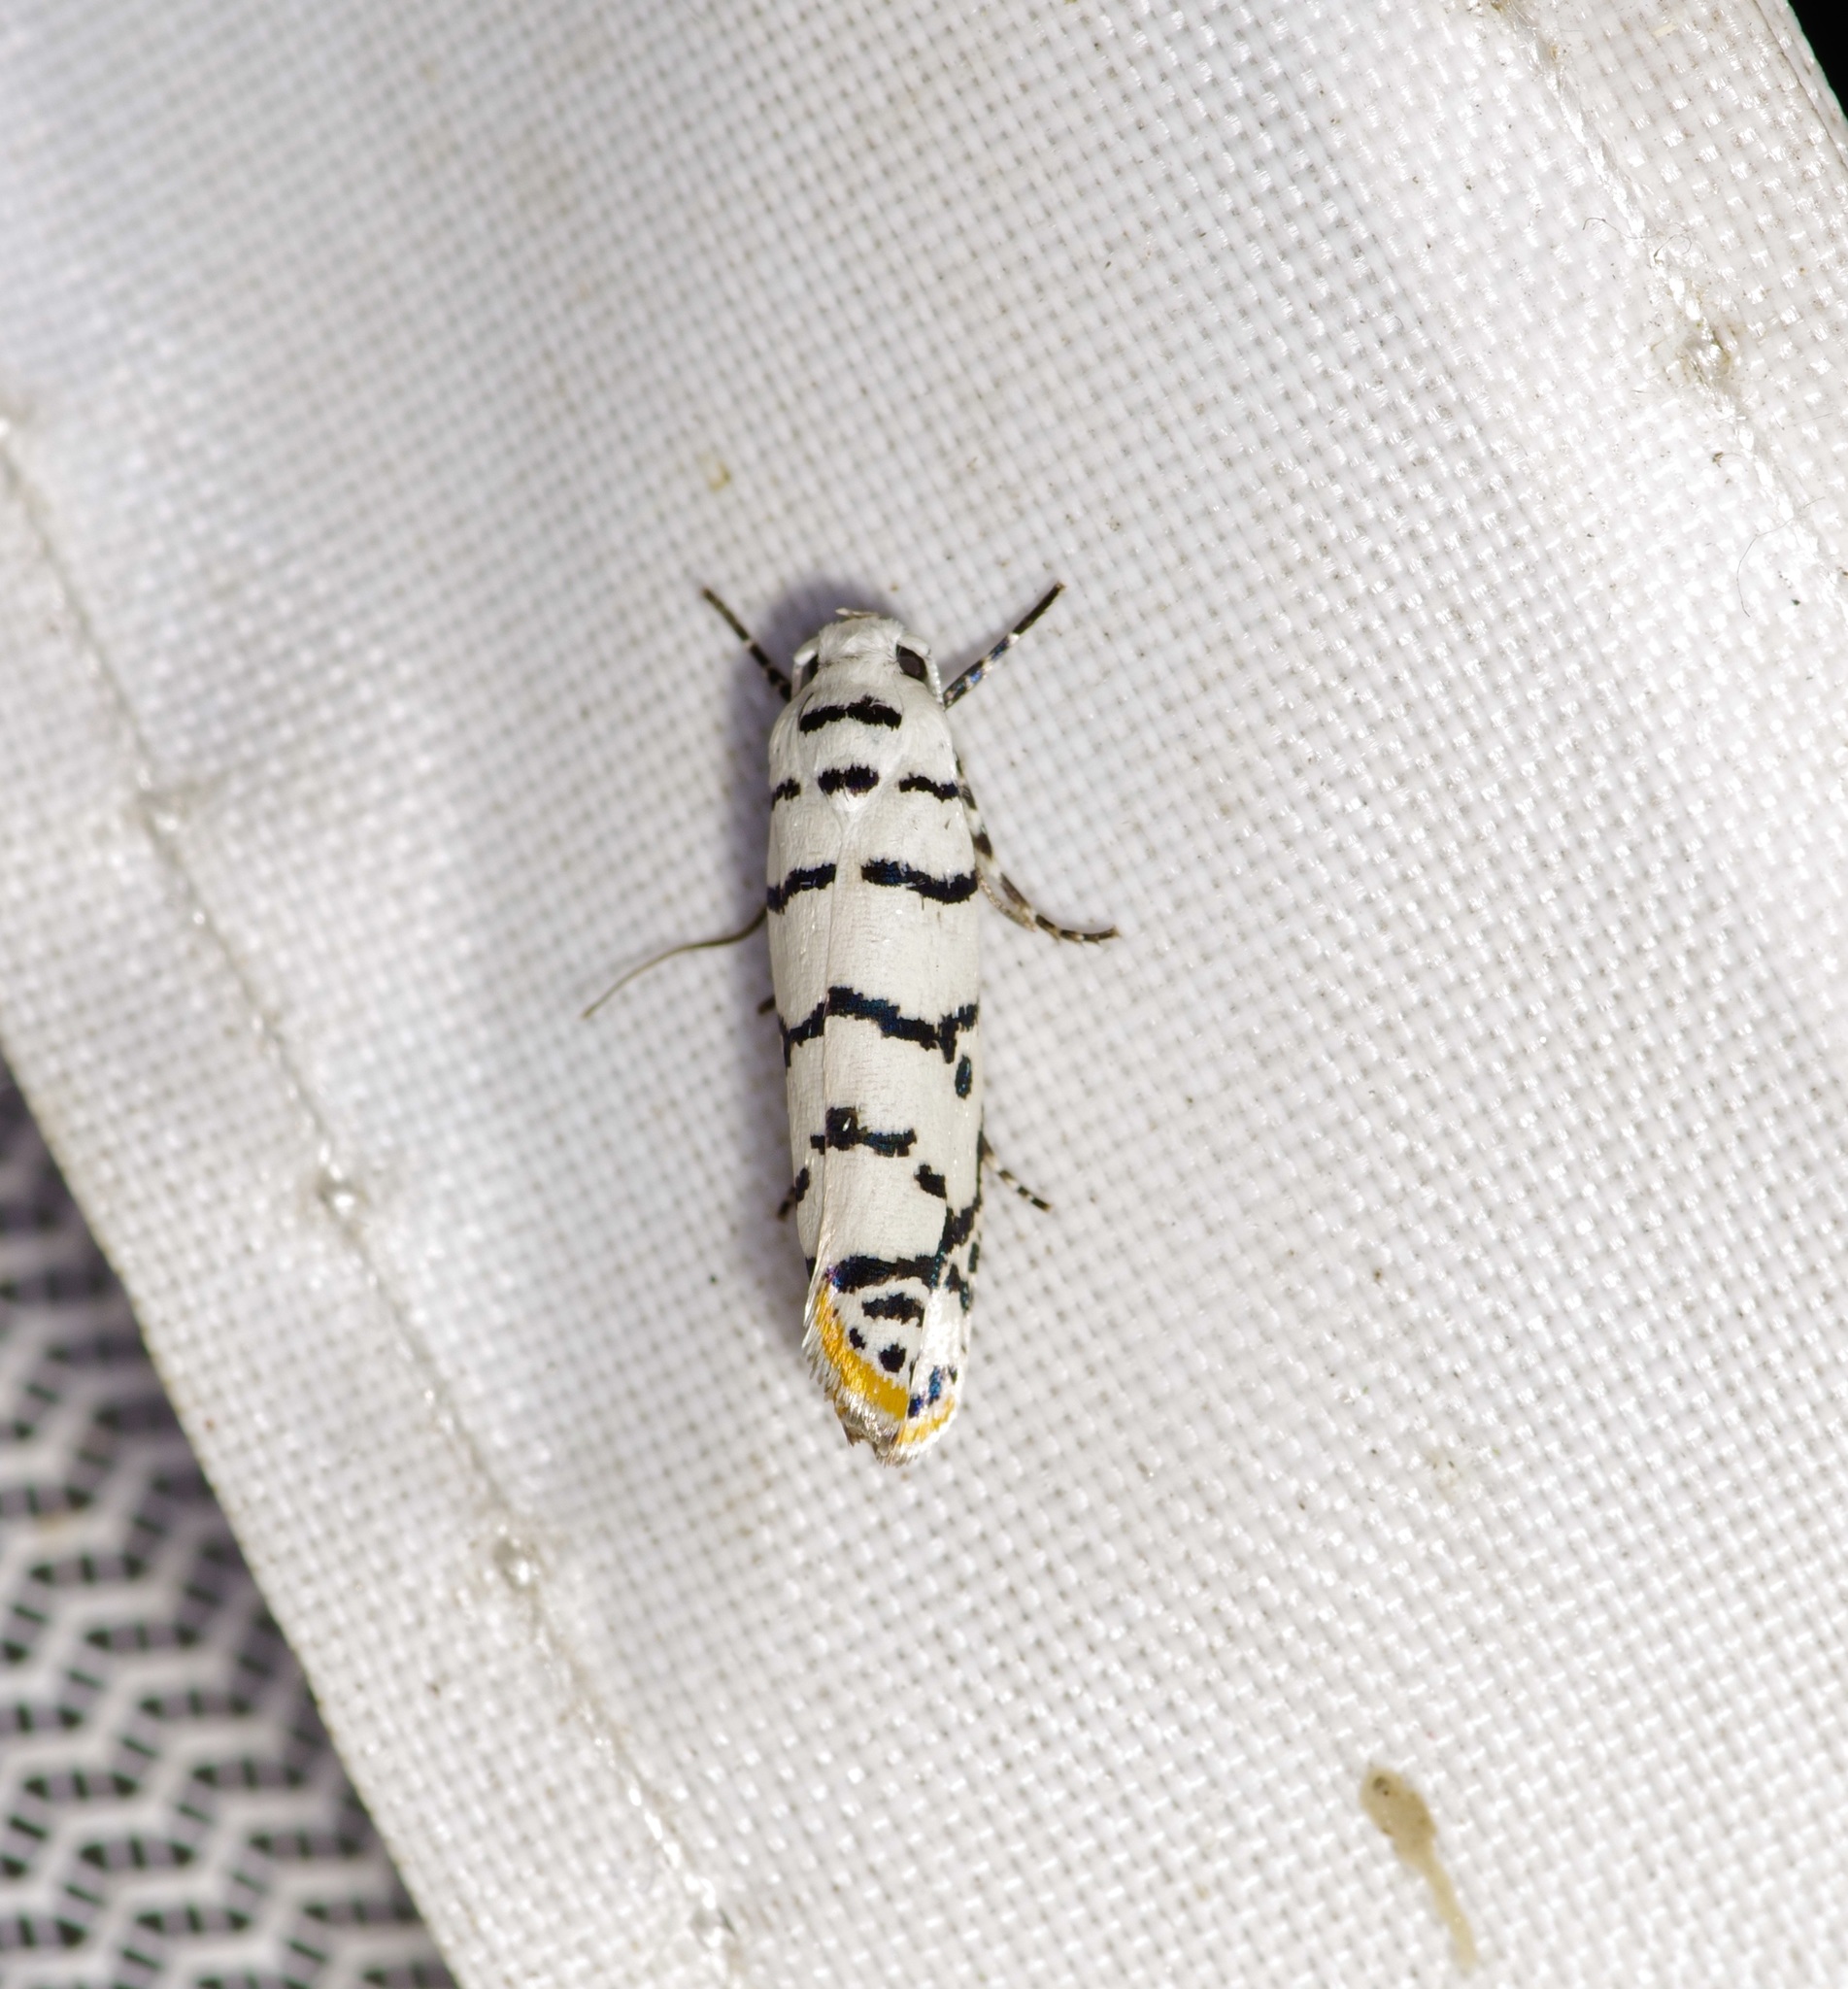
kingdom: Animalia
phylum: Arthropoda
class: Insecta
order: Lepidoptera
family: Ethmiidae
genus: Ethmia
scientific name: Ethmia delliella
